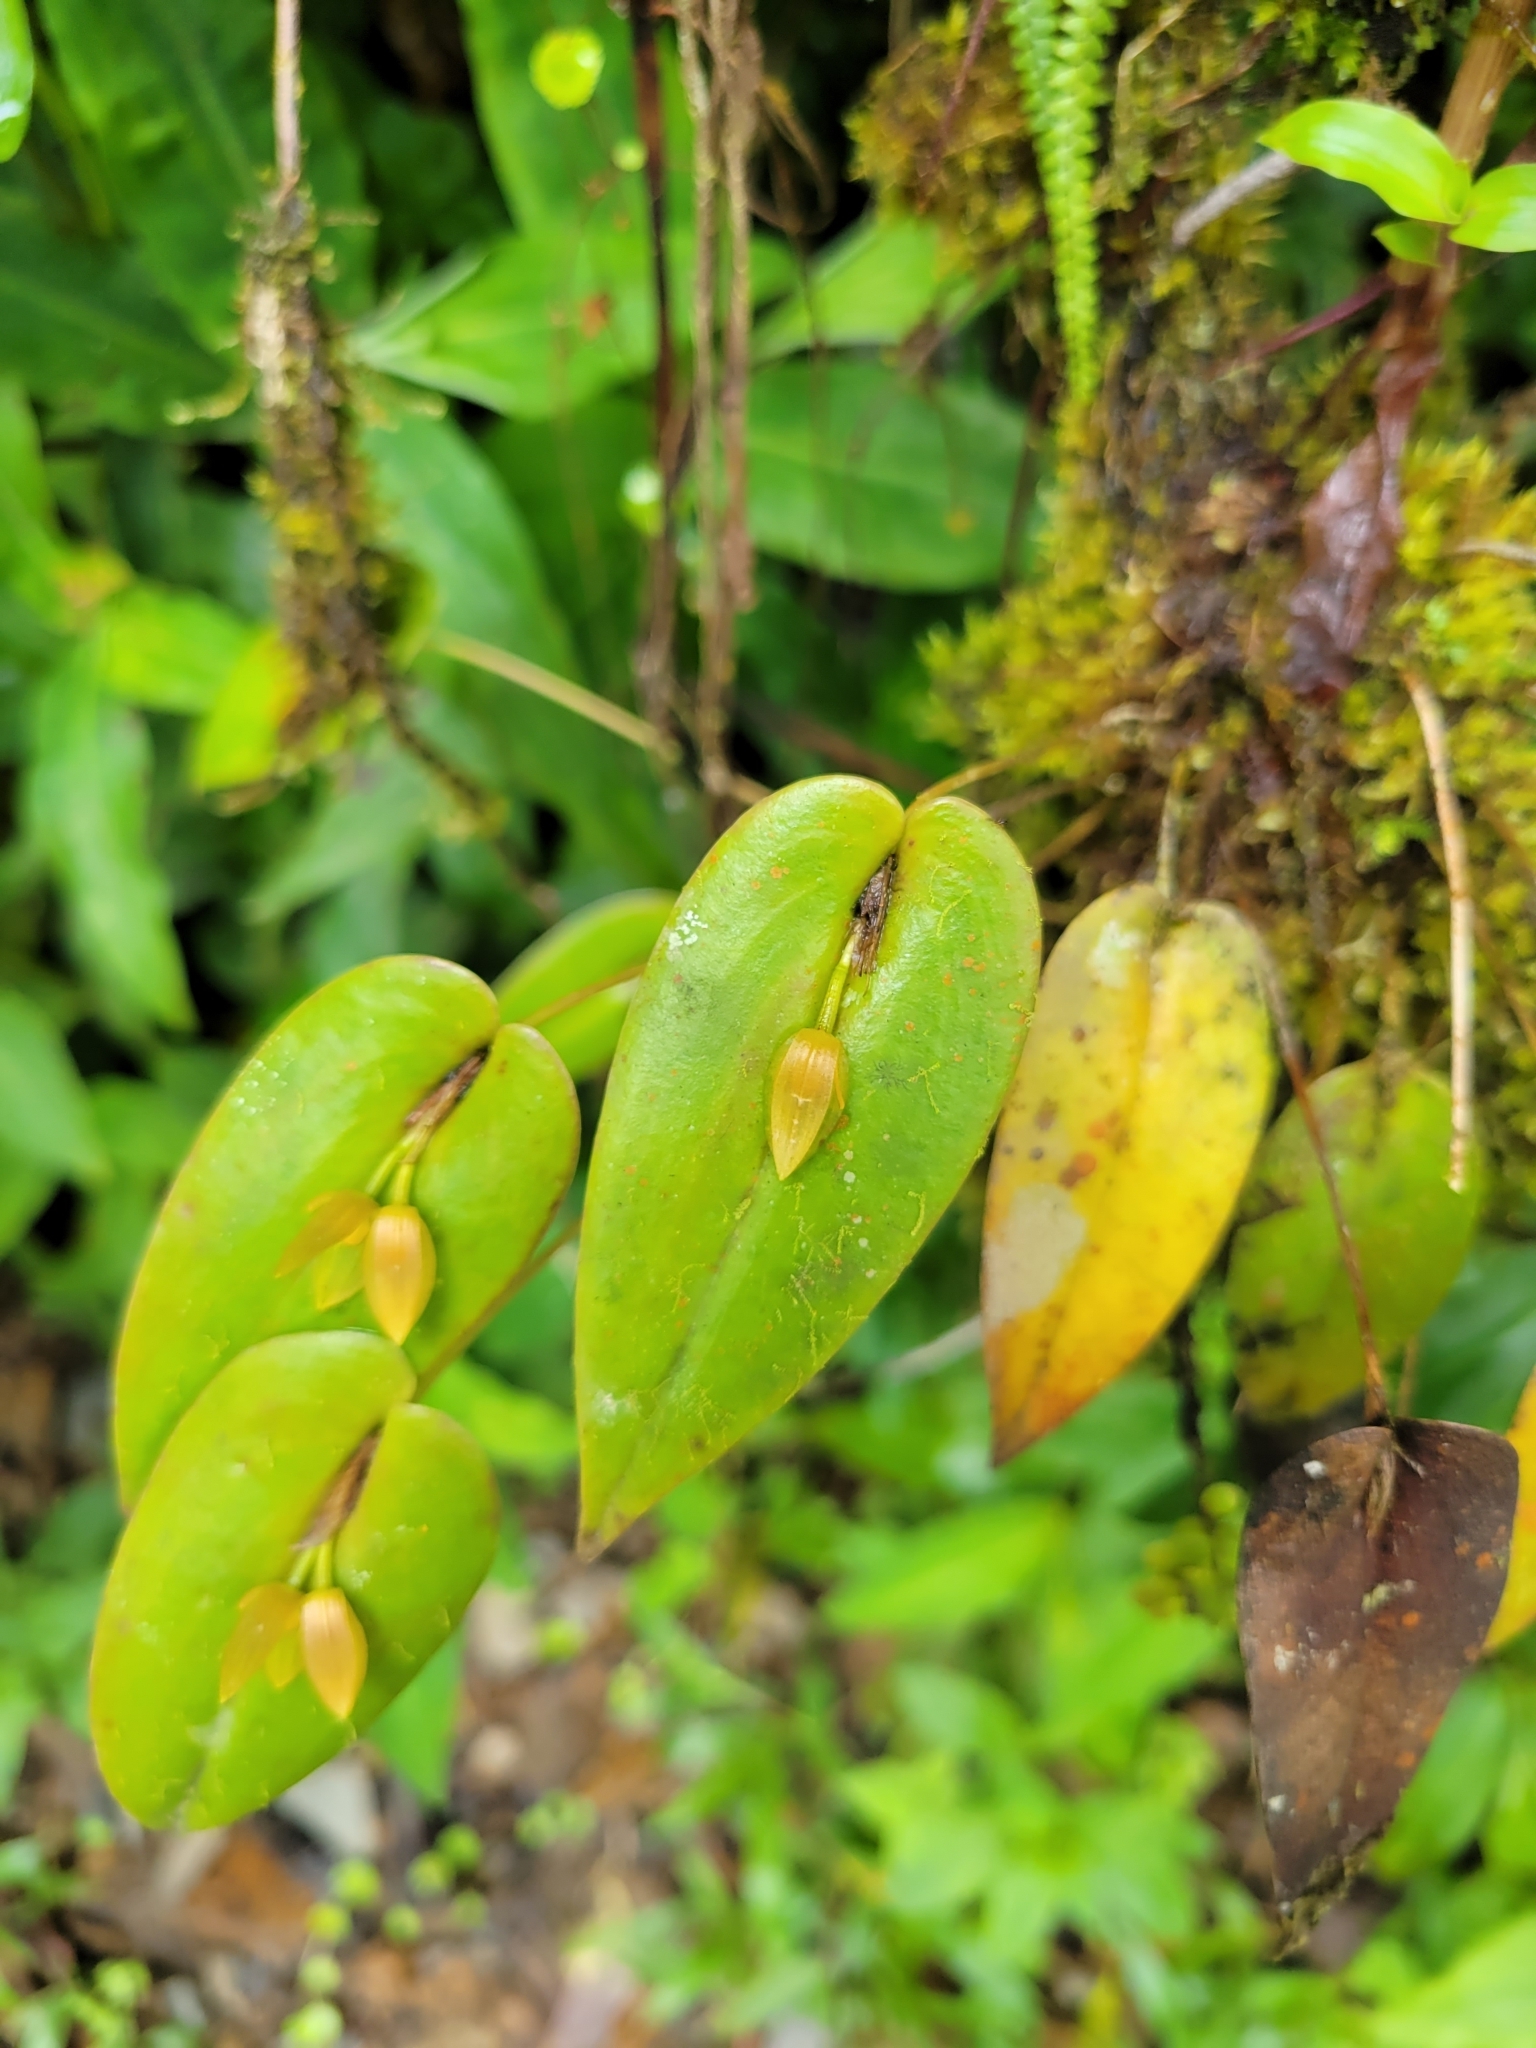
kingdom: Plantae
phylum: Tracheophyta
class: Liliopsida
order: Asparagales
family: Orchidaceae
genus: Pleurothallis
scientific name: Pleurothallis homalantha
